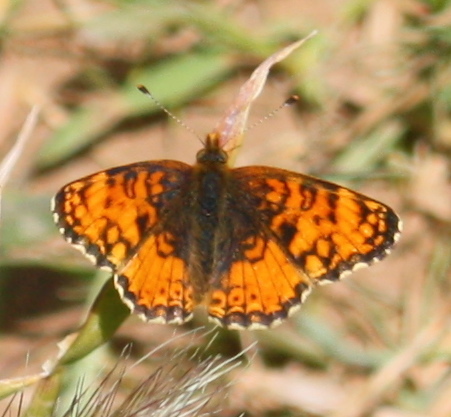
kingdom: Animalia
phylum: Arthropoda
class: Insecta
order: Lepidoptera
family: Nymphalidae
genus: Eresia
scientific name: Eresia aveyrona
